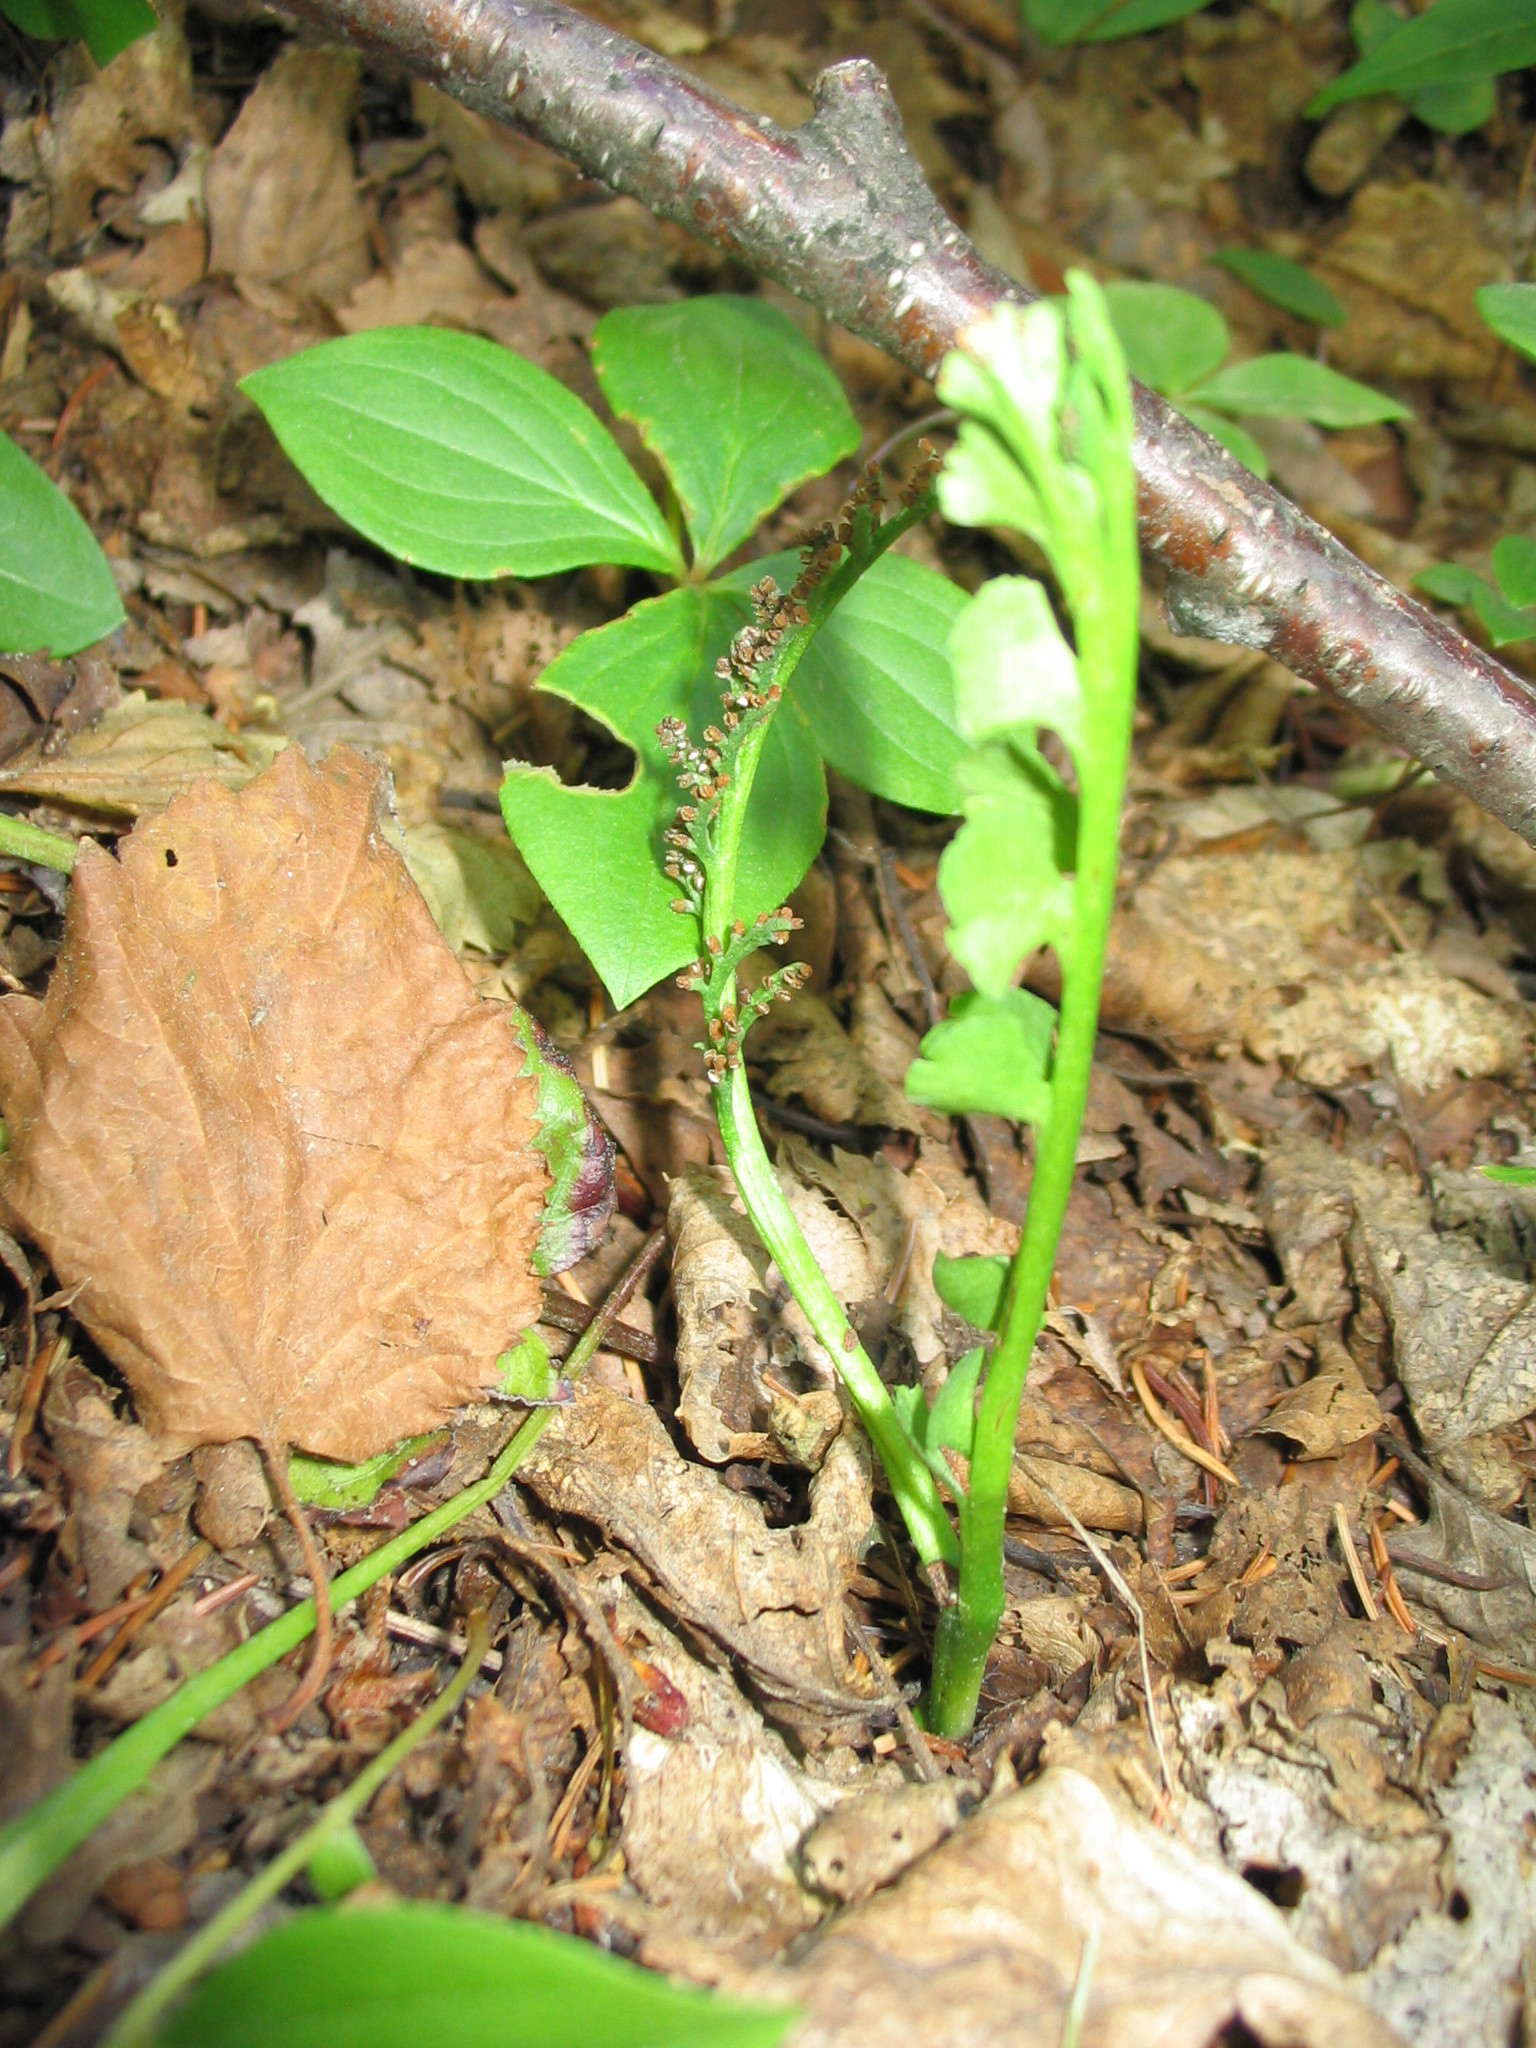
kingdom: Plantae
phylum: Tracheophyta
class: Polypodiopsida
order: Ophioglossales
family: Ophioglossaceae
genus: Botrychium
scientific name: Botrychium minganense
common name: Mingan grapefern
